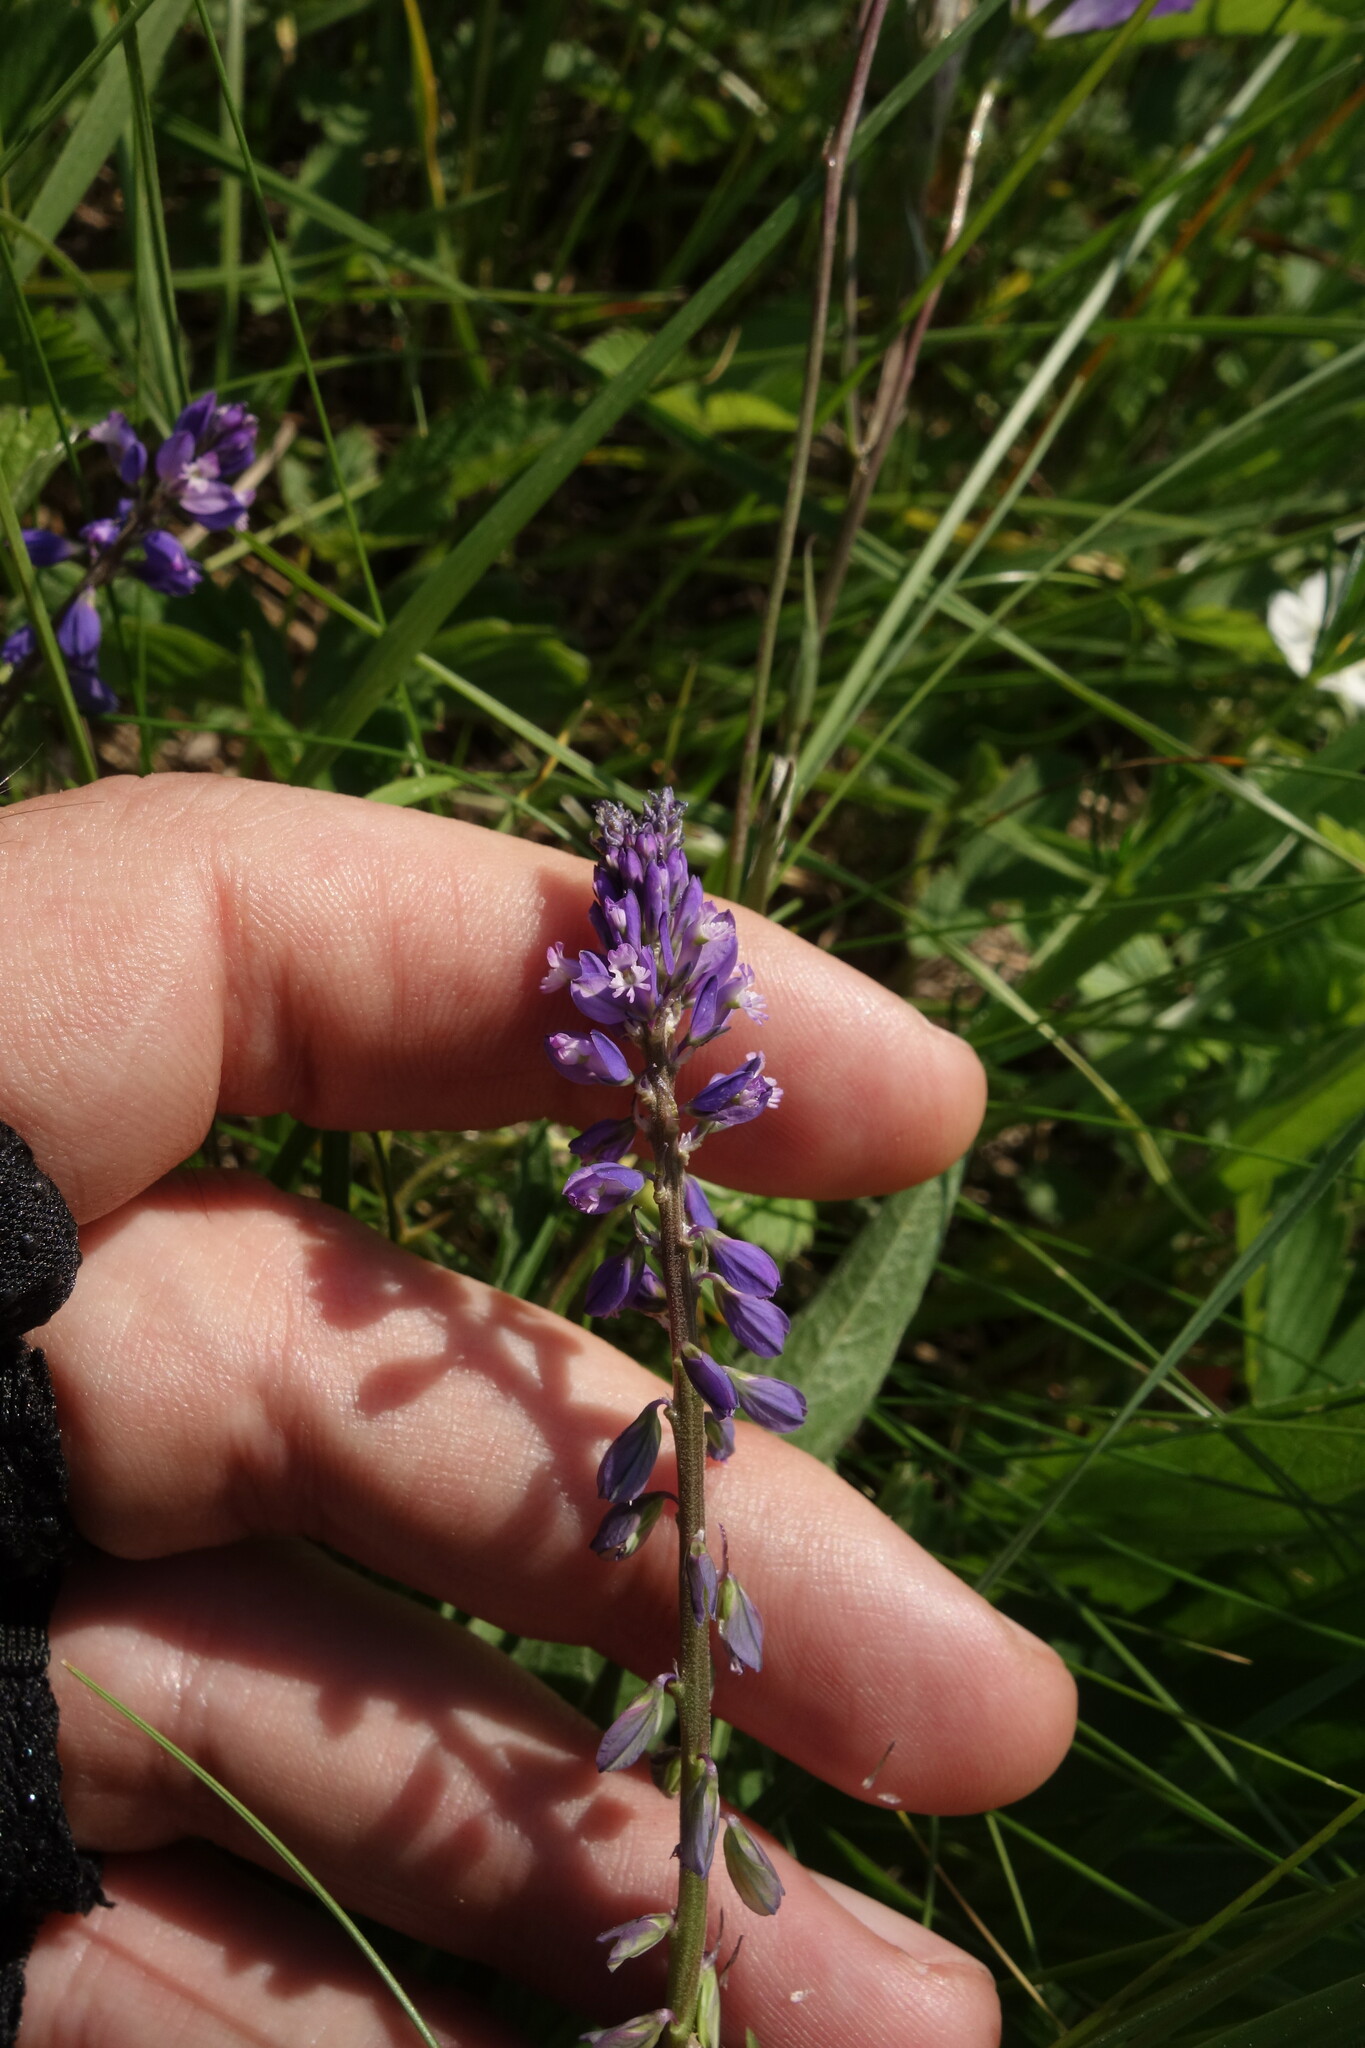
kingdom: Plantae
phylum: Tracheophyta
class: Magnoliopsida
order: Fabales
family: Polygalaceae
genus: Polygala
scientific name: Polygala comosa
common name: Tufted milkwort
